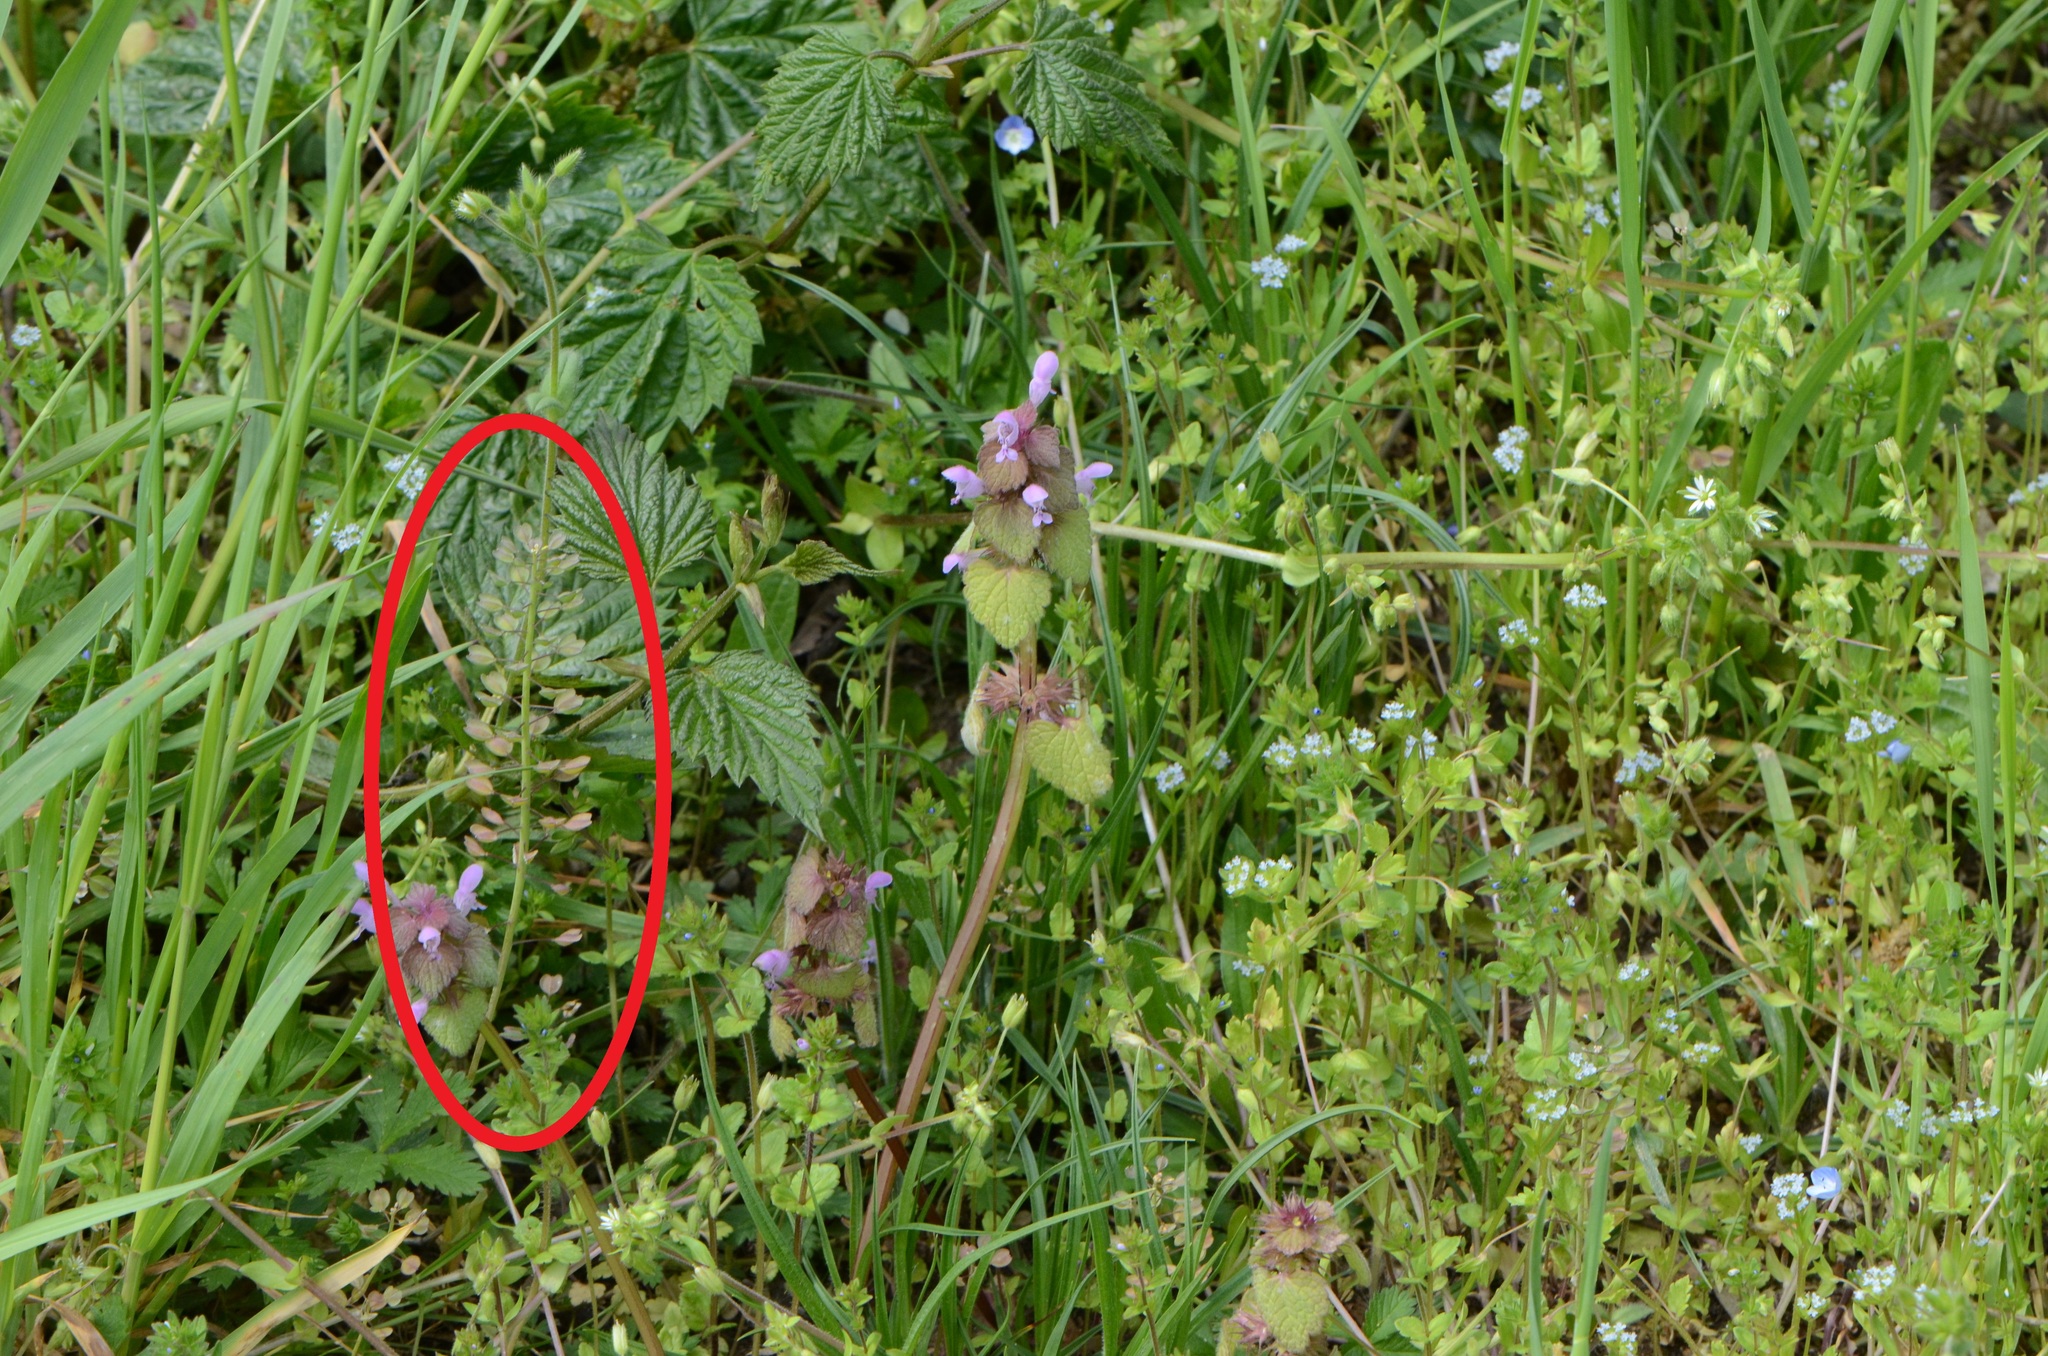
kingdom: Plantae
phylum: Tracheophyta
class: Magnoliopsida
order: Brassicales
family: Brassicaceae
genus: Noccaea
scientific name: Noccaea perfoliata
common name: Perfoliate pennycress
